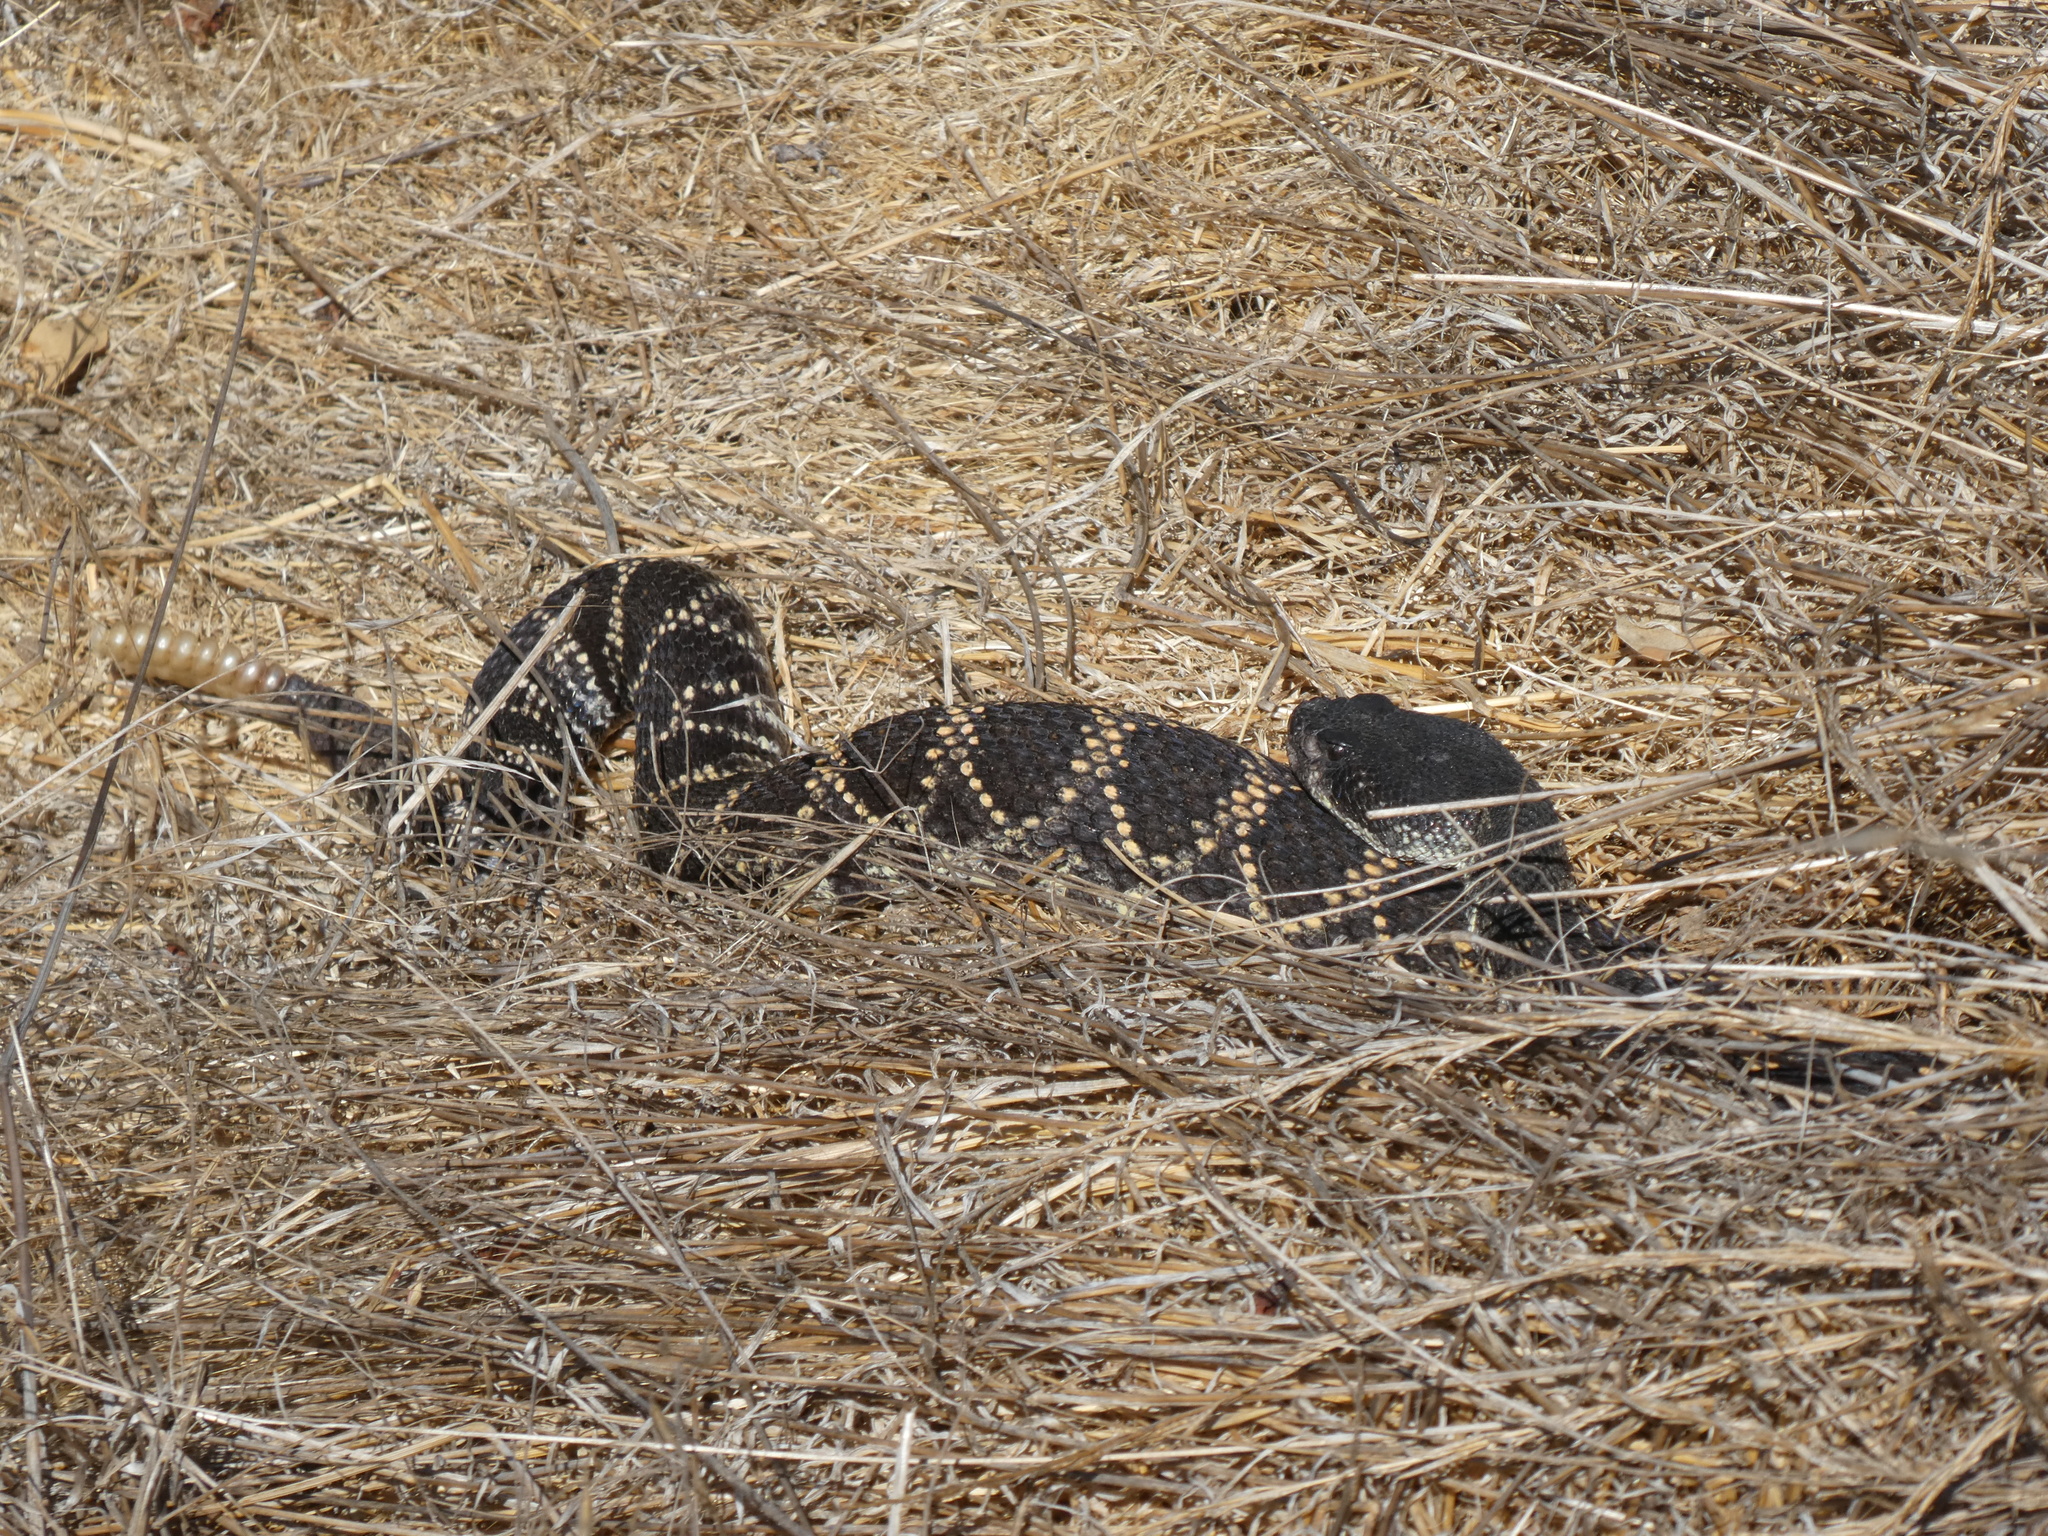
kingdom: Animalia
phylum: Chordata
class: Squamata
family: Viperidae
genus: Crotalus
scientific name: Crotalus oreganus
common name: Abyssus
